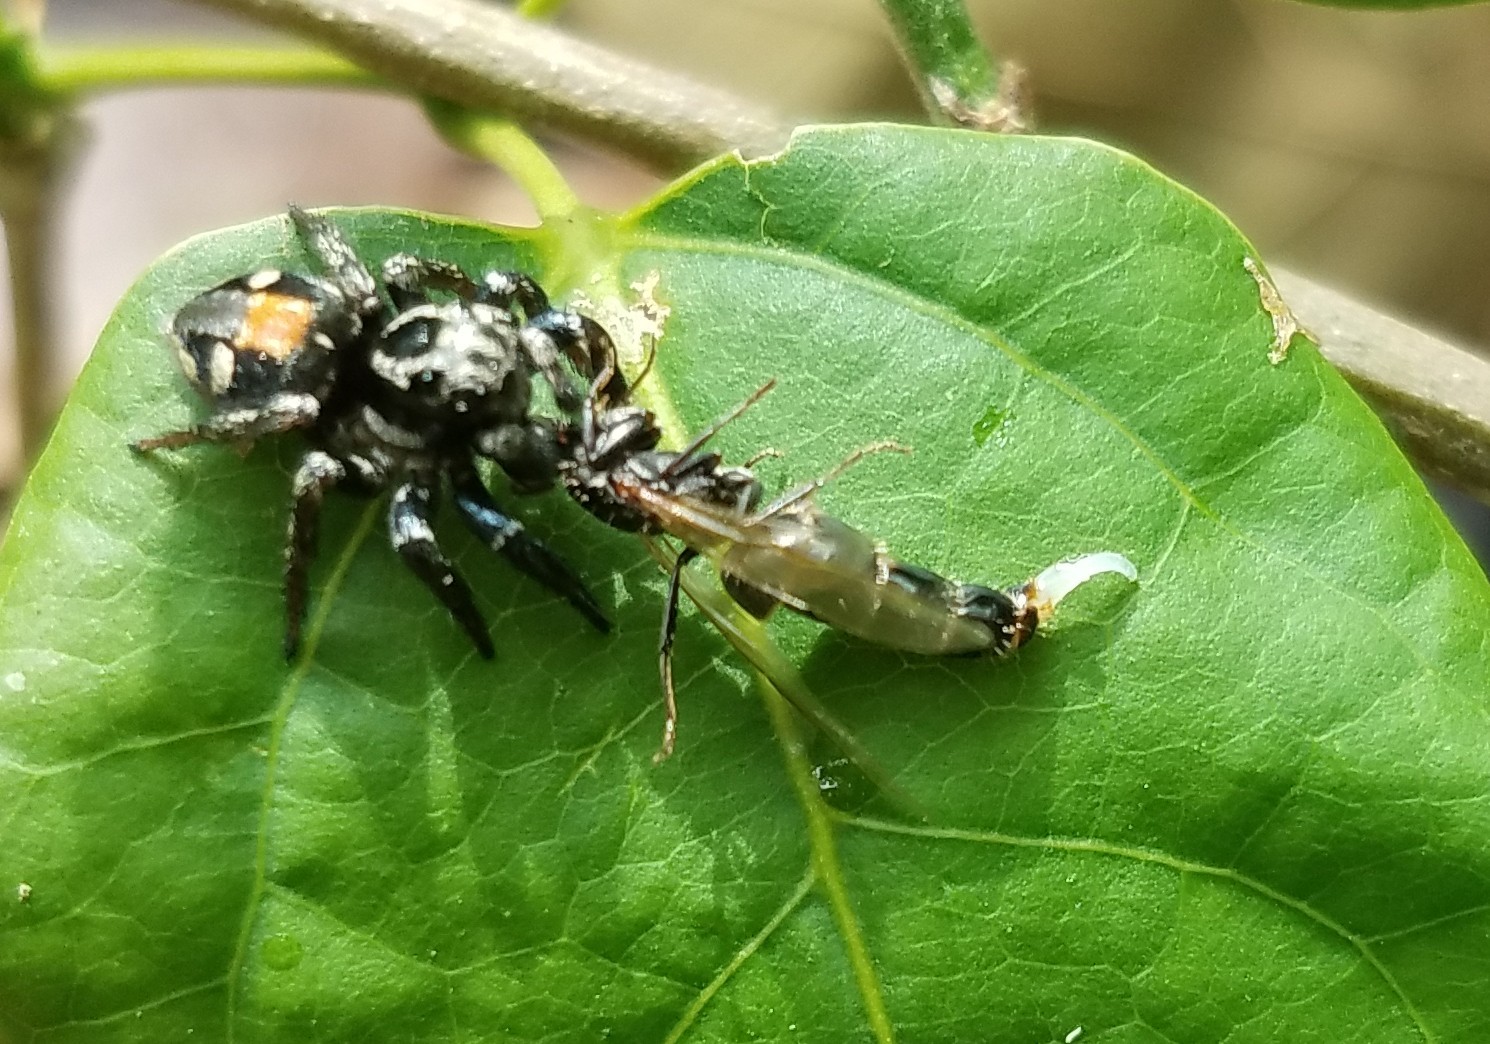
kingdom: Animalia
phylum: Arthropoda
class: Arachnida
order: Araneae
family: Salticidae
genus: Corythalia
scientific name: Corythalia opima
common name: Jumping spiders
